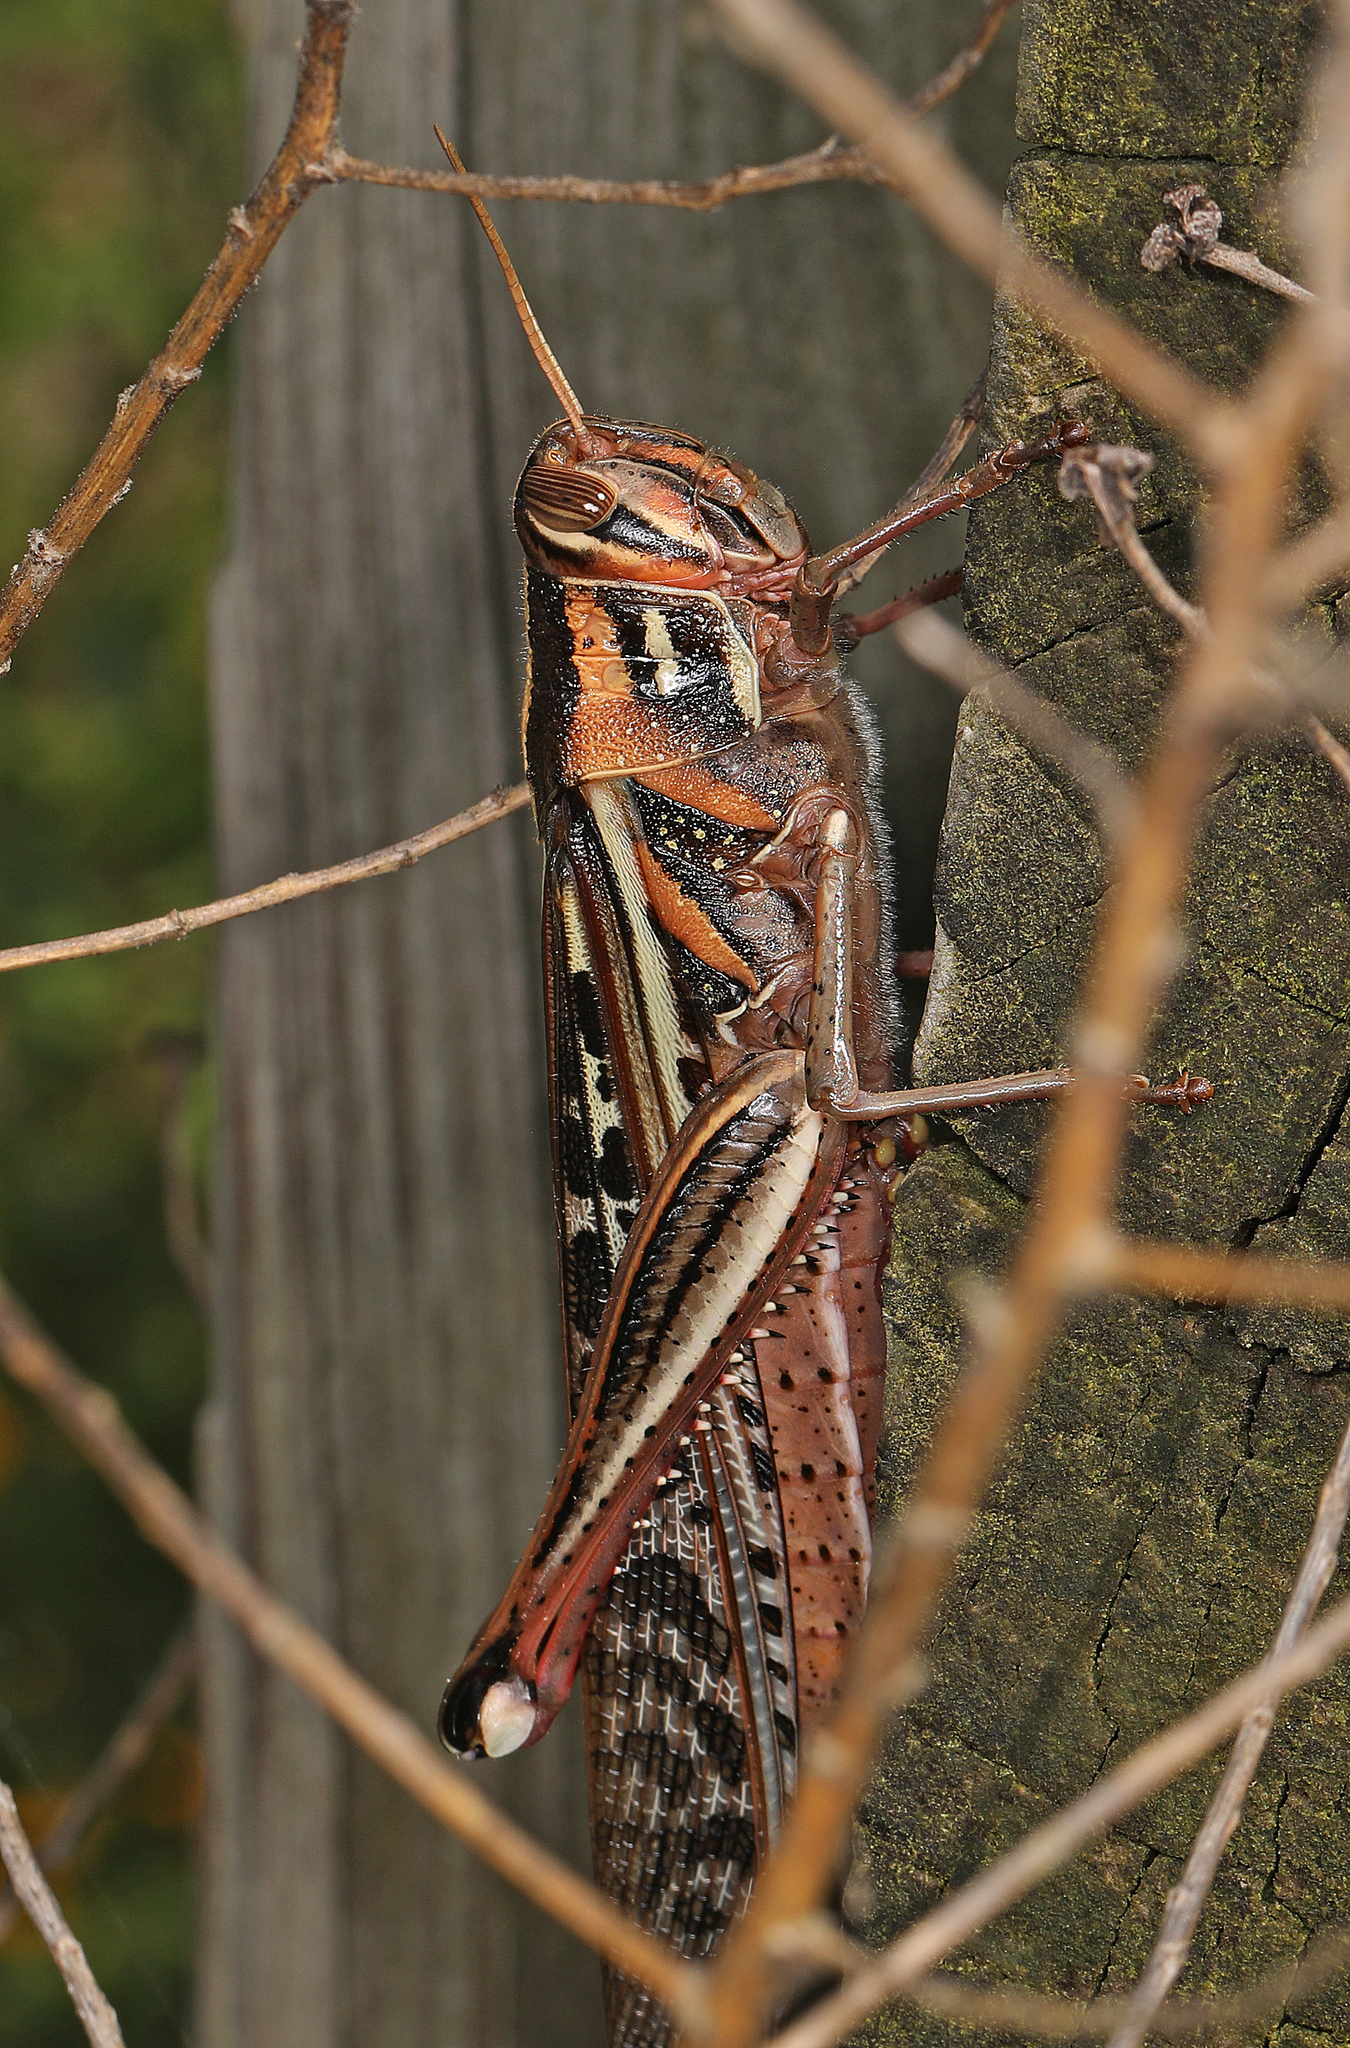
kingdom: Animalia
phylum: Arthropoda
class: Insecta
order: Orthoptera
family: Acrididae
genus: Schistocerca
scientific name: Schistocerca americana
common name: American bird locust
